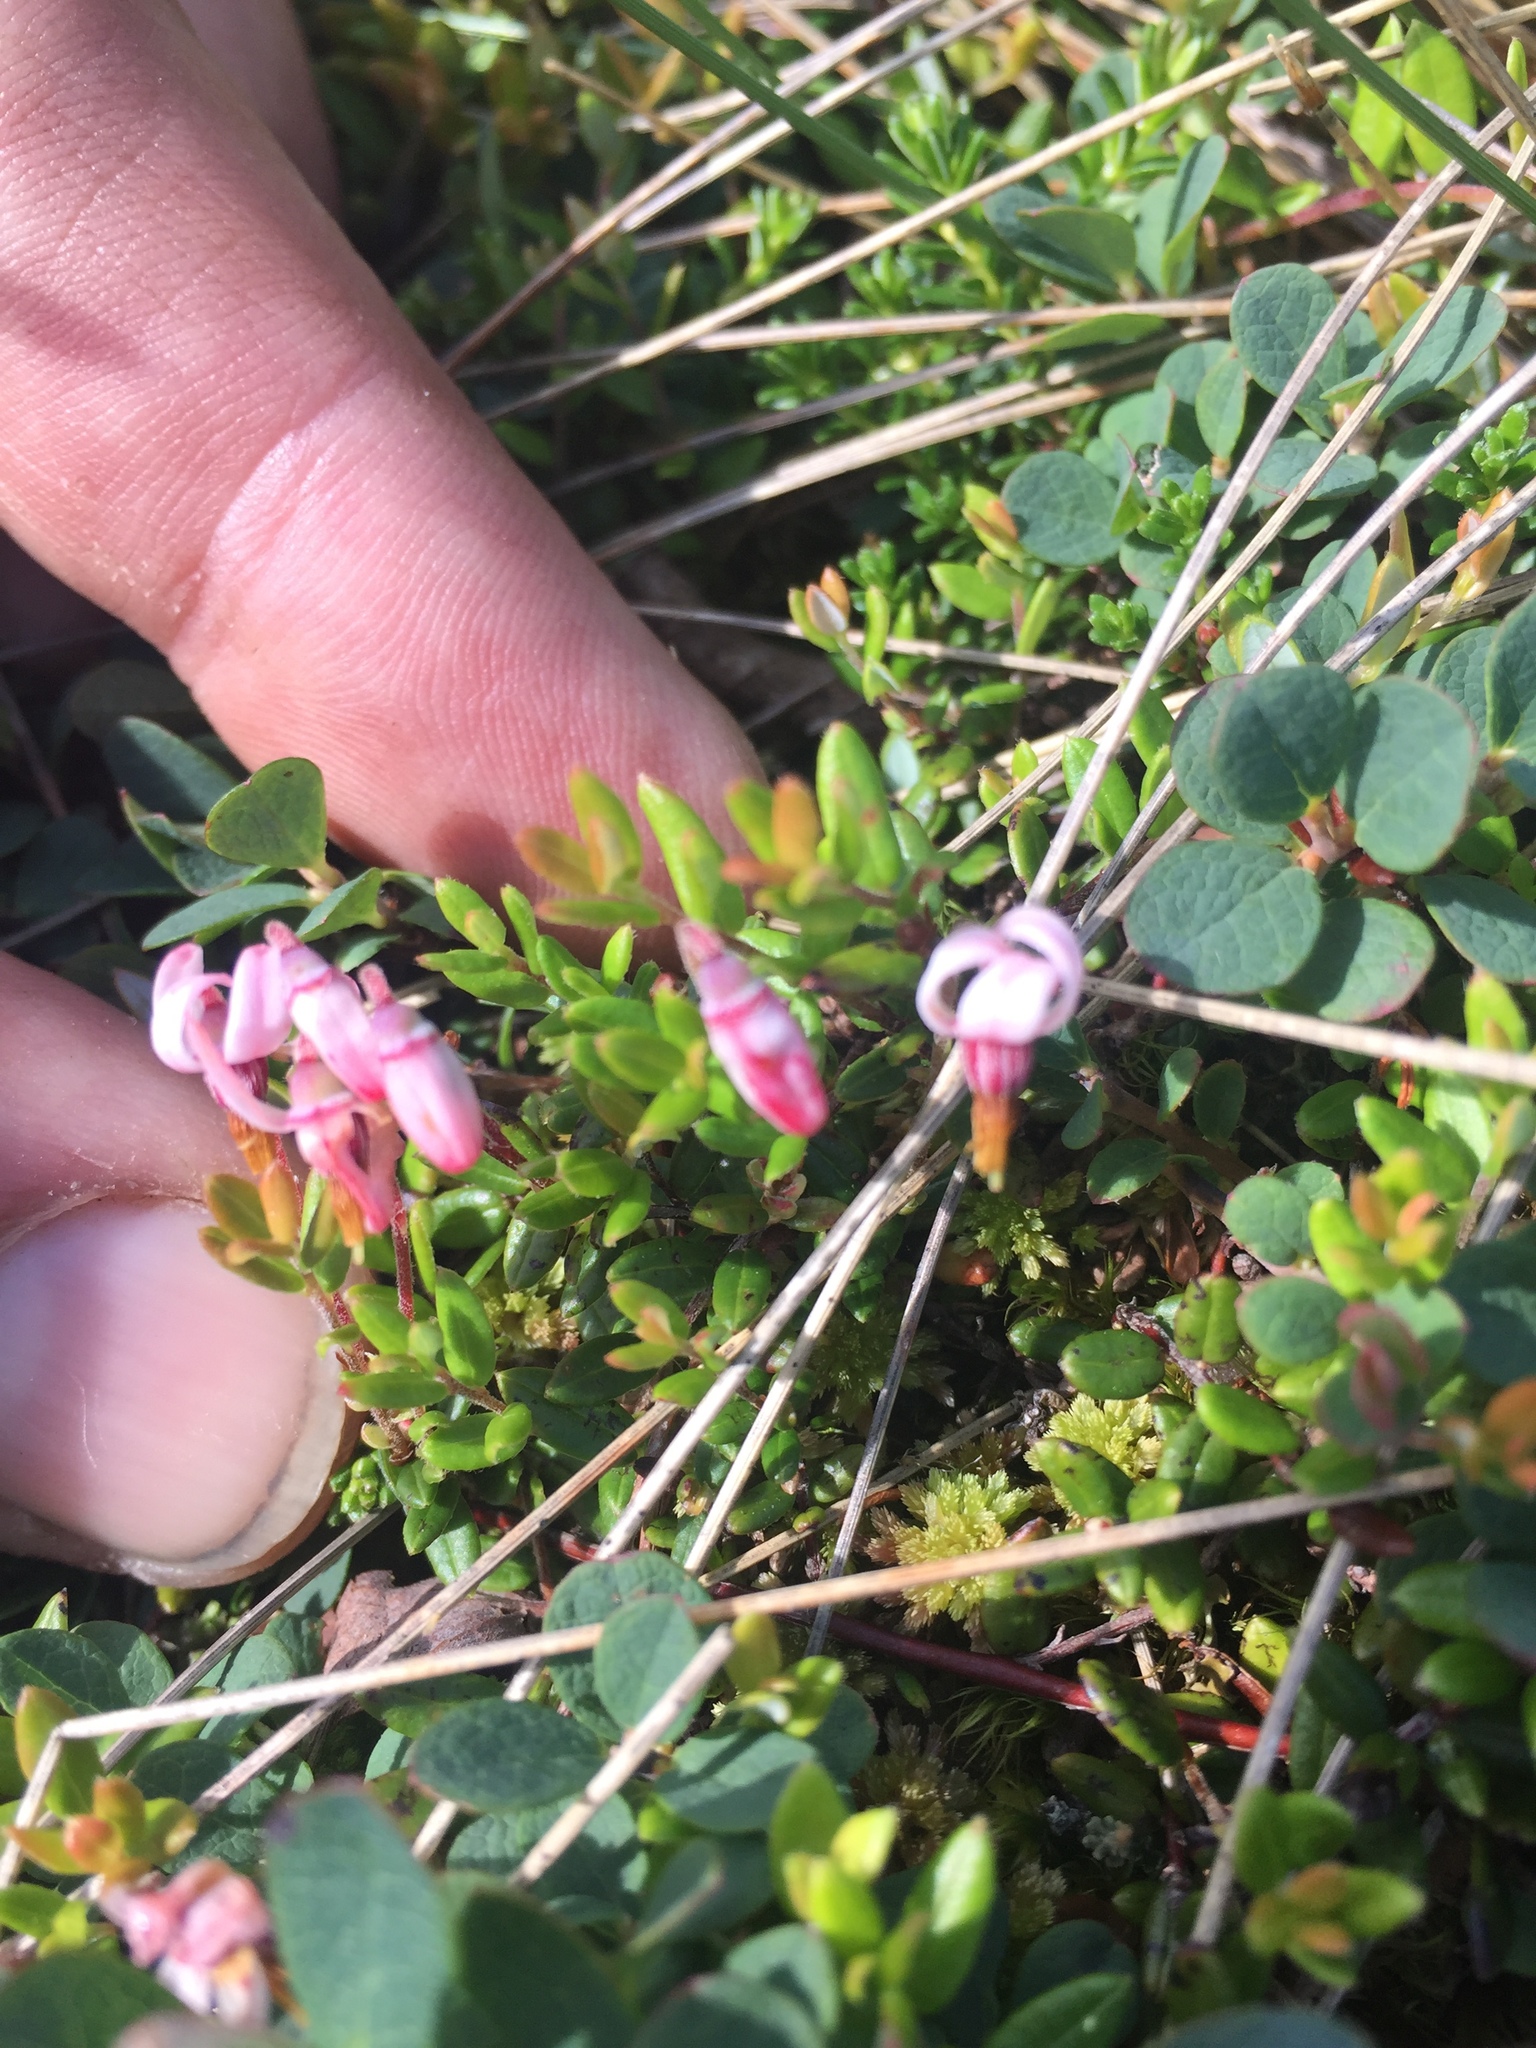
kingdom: Plantae
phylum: Tracheophyta
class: Magnoliopsida
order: Ericales
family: Ericaceae
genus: Vaccinium
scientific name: Vaccinium oxycoccos
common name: Cranberry
